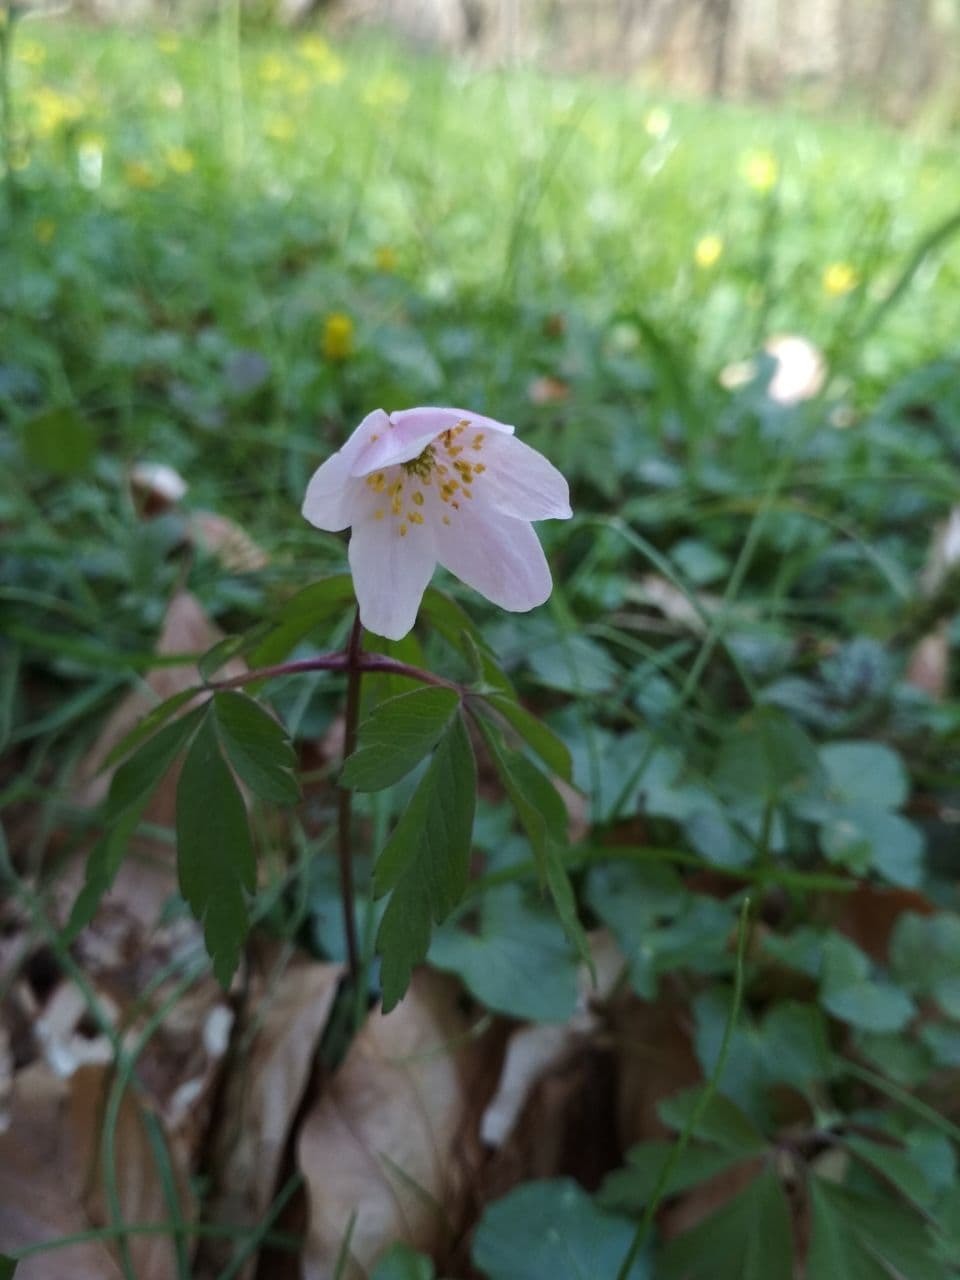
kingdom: Plantae
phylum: Tracheophyta
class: Magnoliopsida
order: Ranunculales
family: Ranunculaceae
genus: Anemone
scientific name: Anemone nemorosa
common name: Wood anemone
